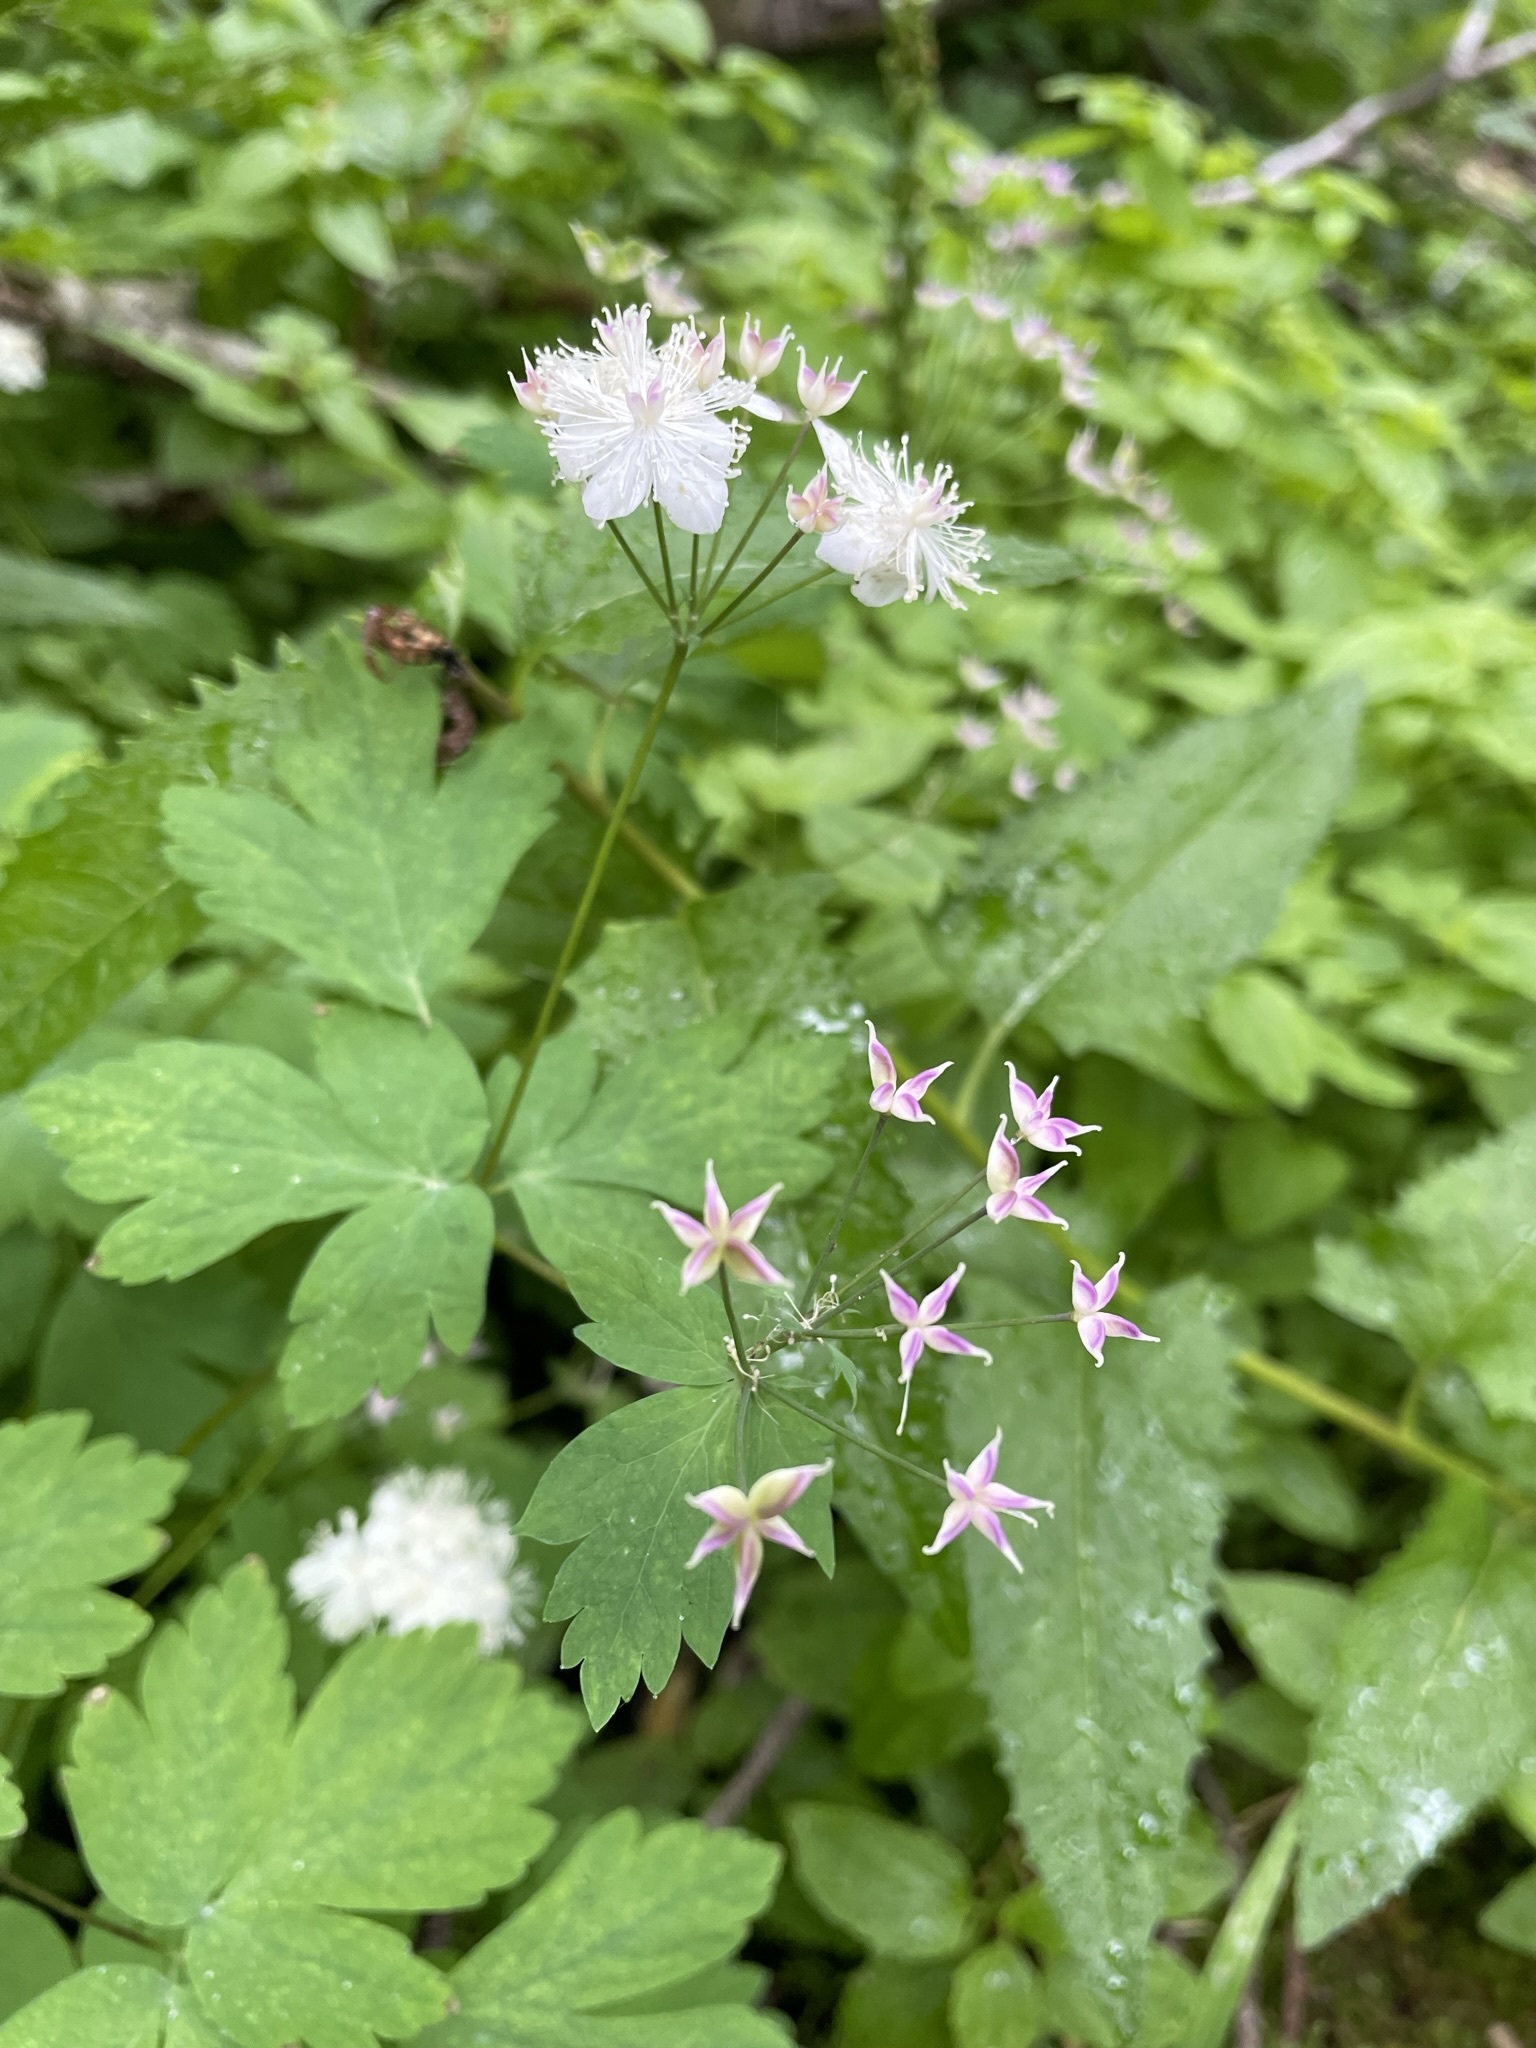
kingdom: Plantae
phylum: Tracheophyta
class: Magnoliopsida
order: Ranunculales
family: Ranunculaceae
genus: Enemion
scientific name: Enemion hallii
